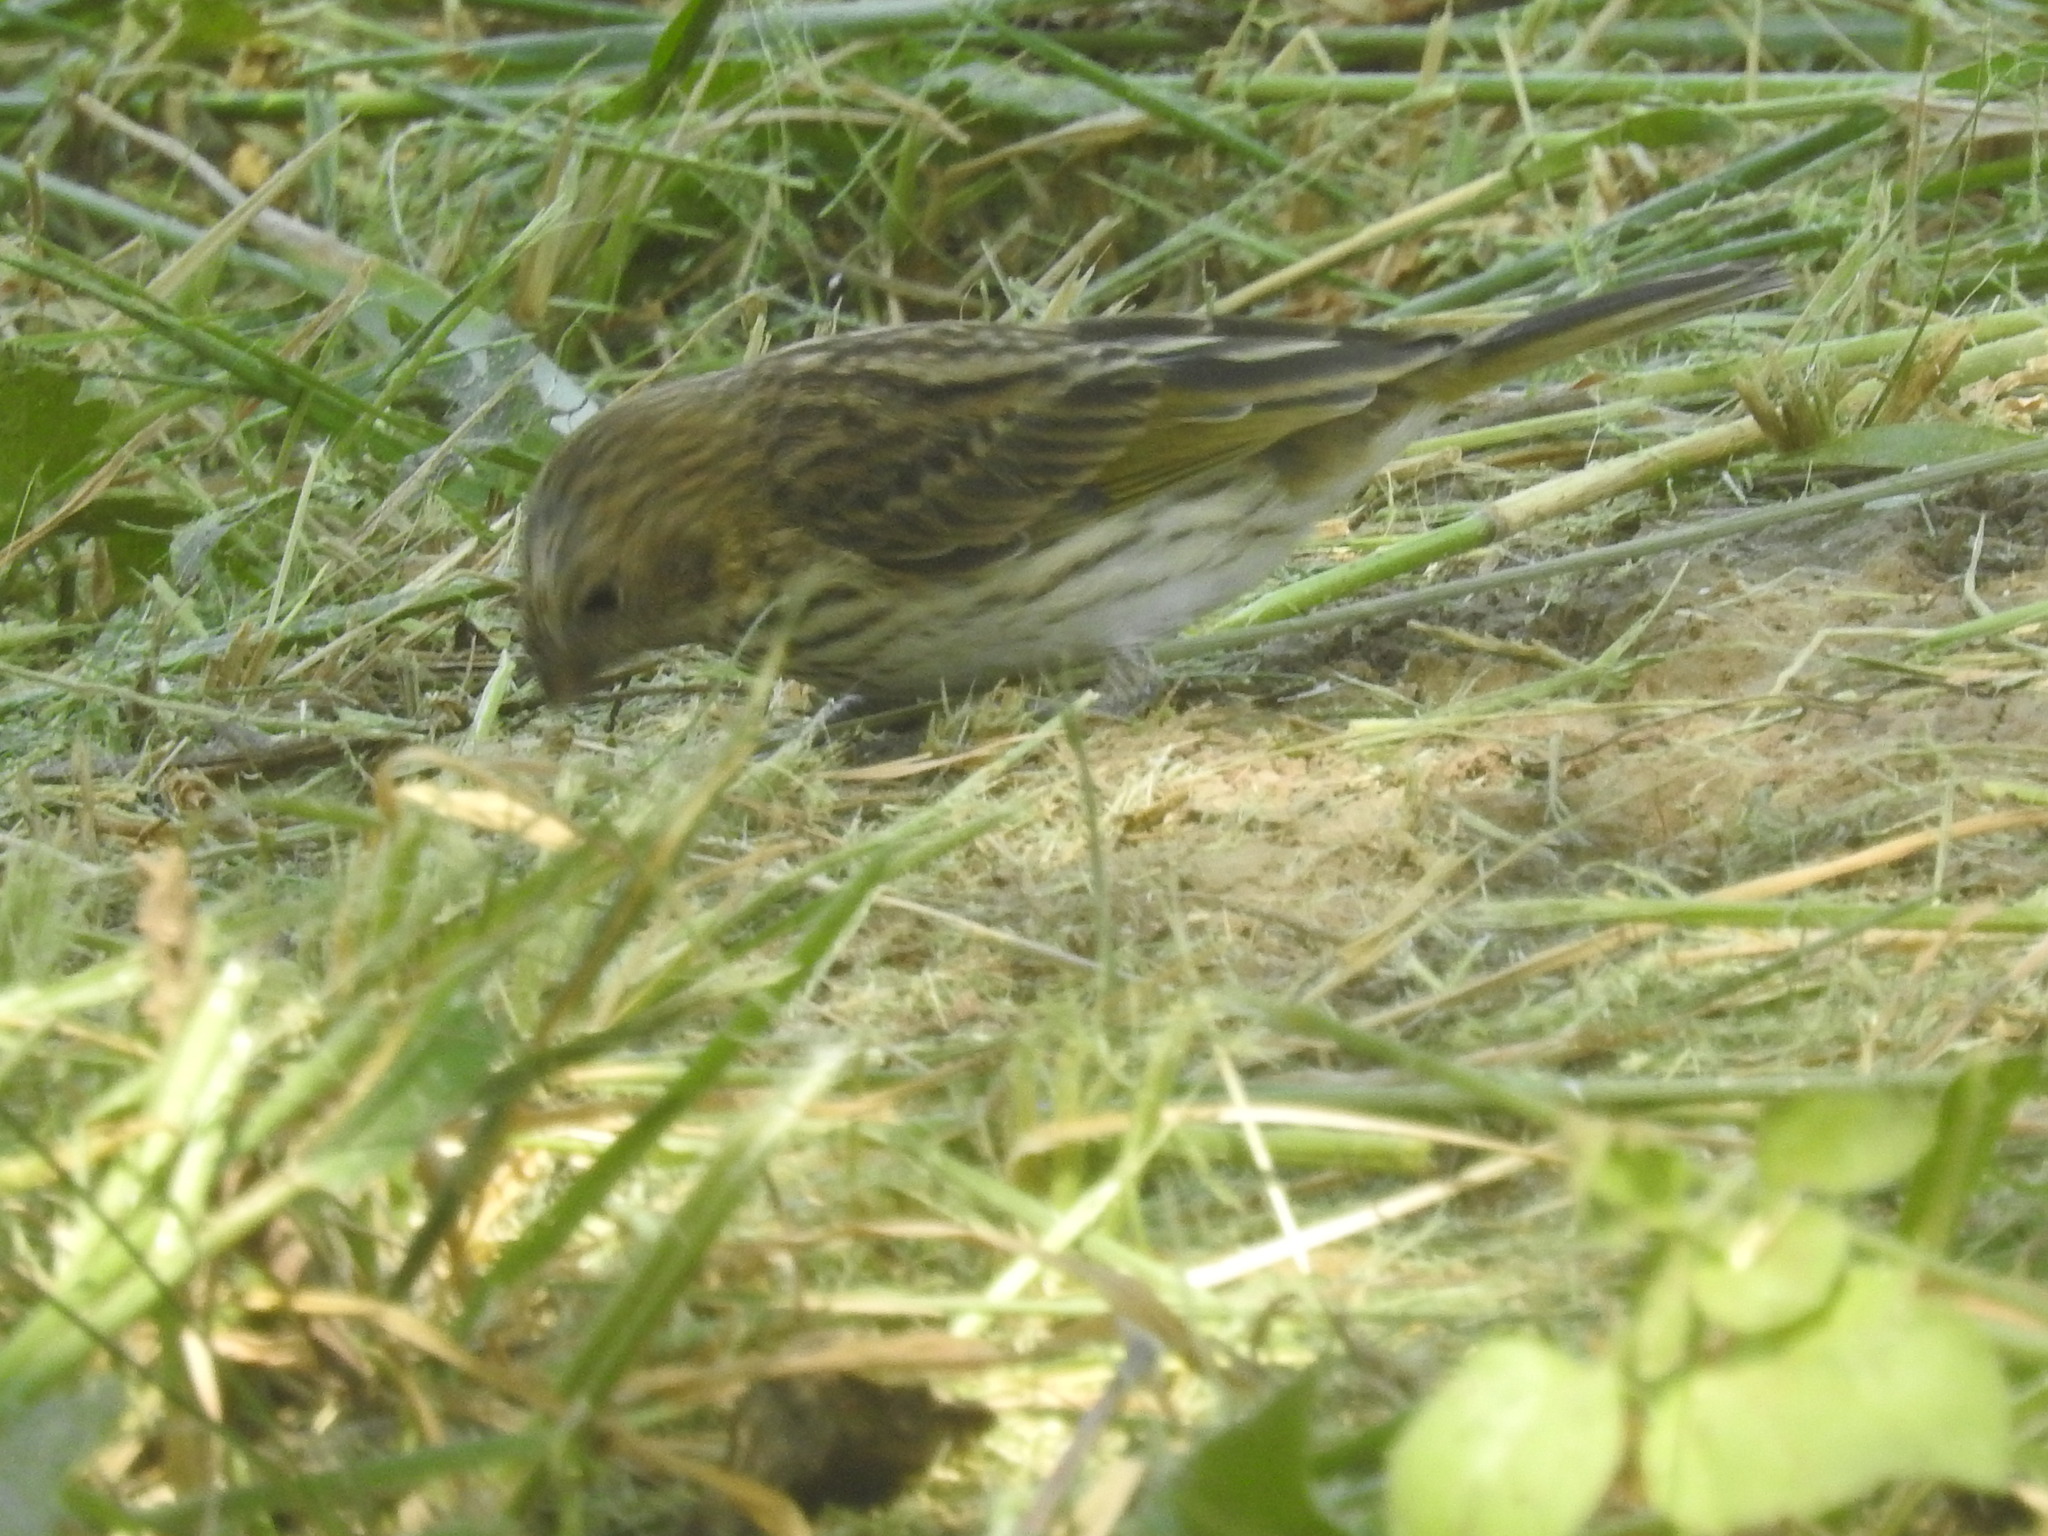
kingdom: Animalia
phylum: Chordata
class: Aves
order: Passeriformes
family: Thraupidae
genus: Sicalis
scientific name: Sicalis flaveola
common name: Saffron finch
